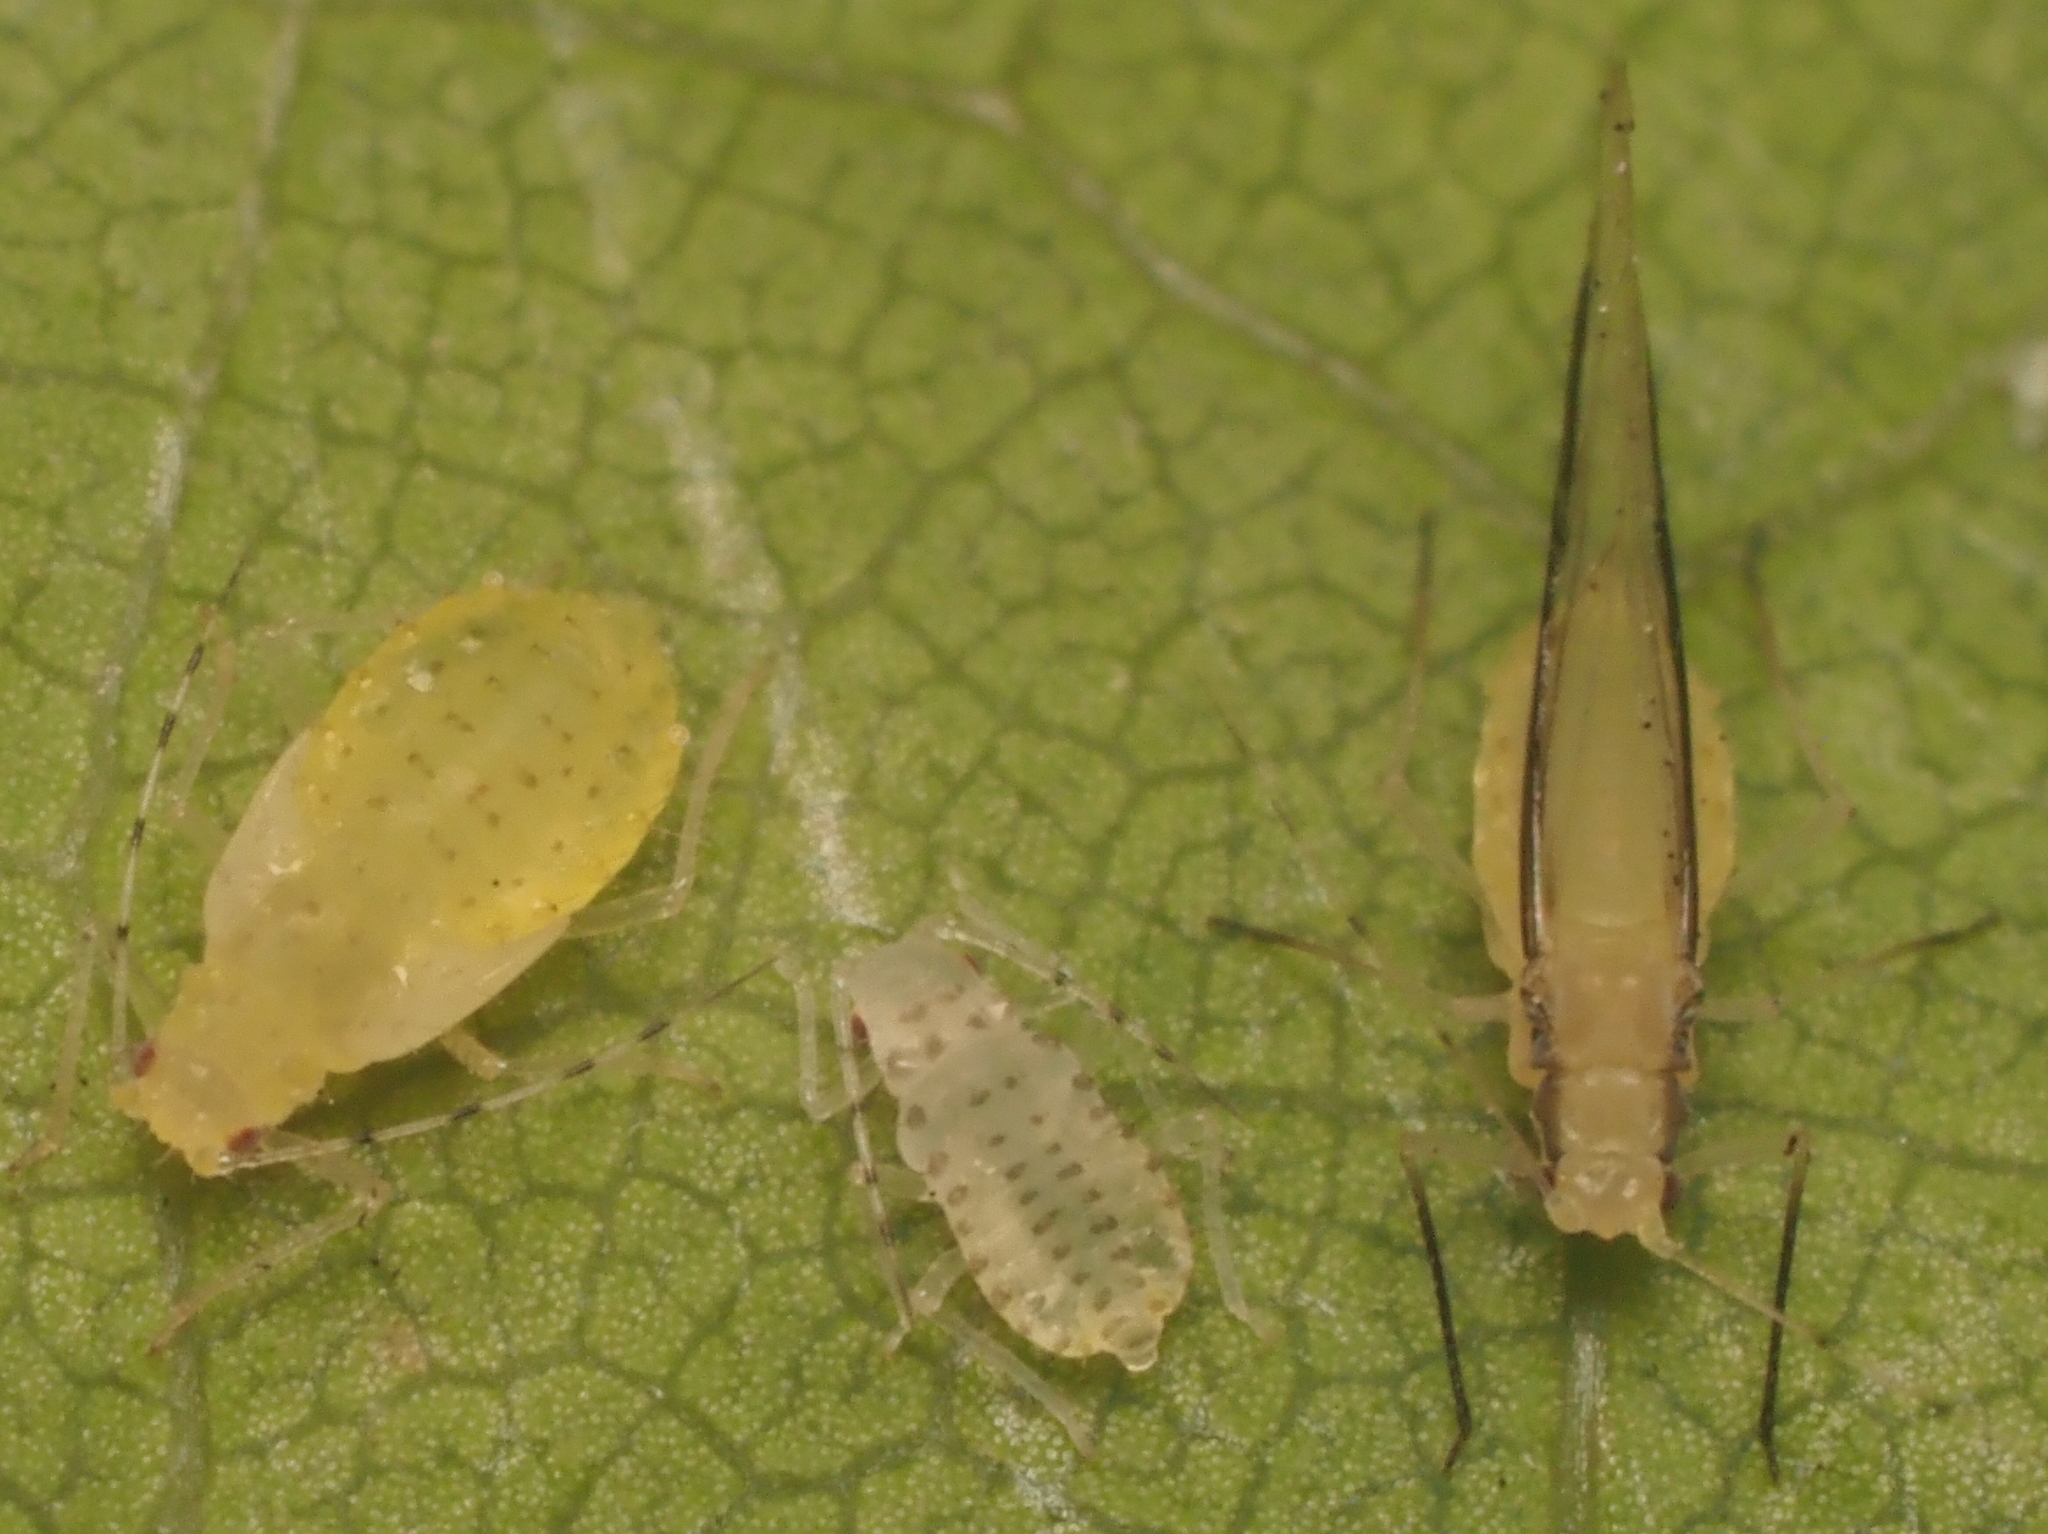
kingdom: Animalia
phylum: Arthropoda
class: Insecta
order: Hemiptera
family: Aphididae
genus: Lineomyzocallis
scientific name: Lineomyzocallis
